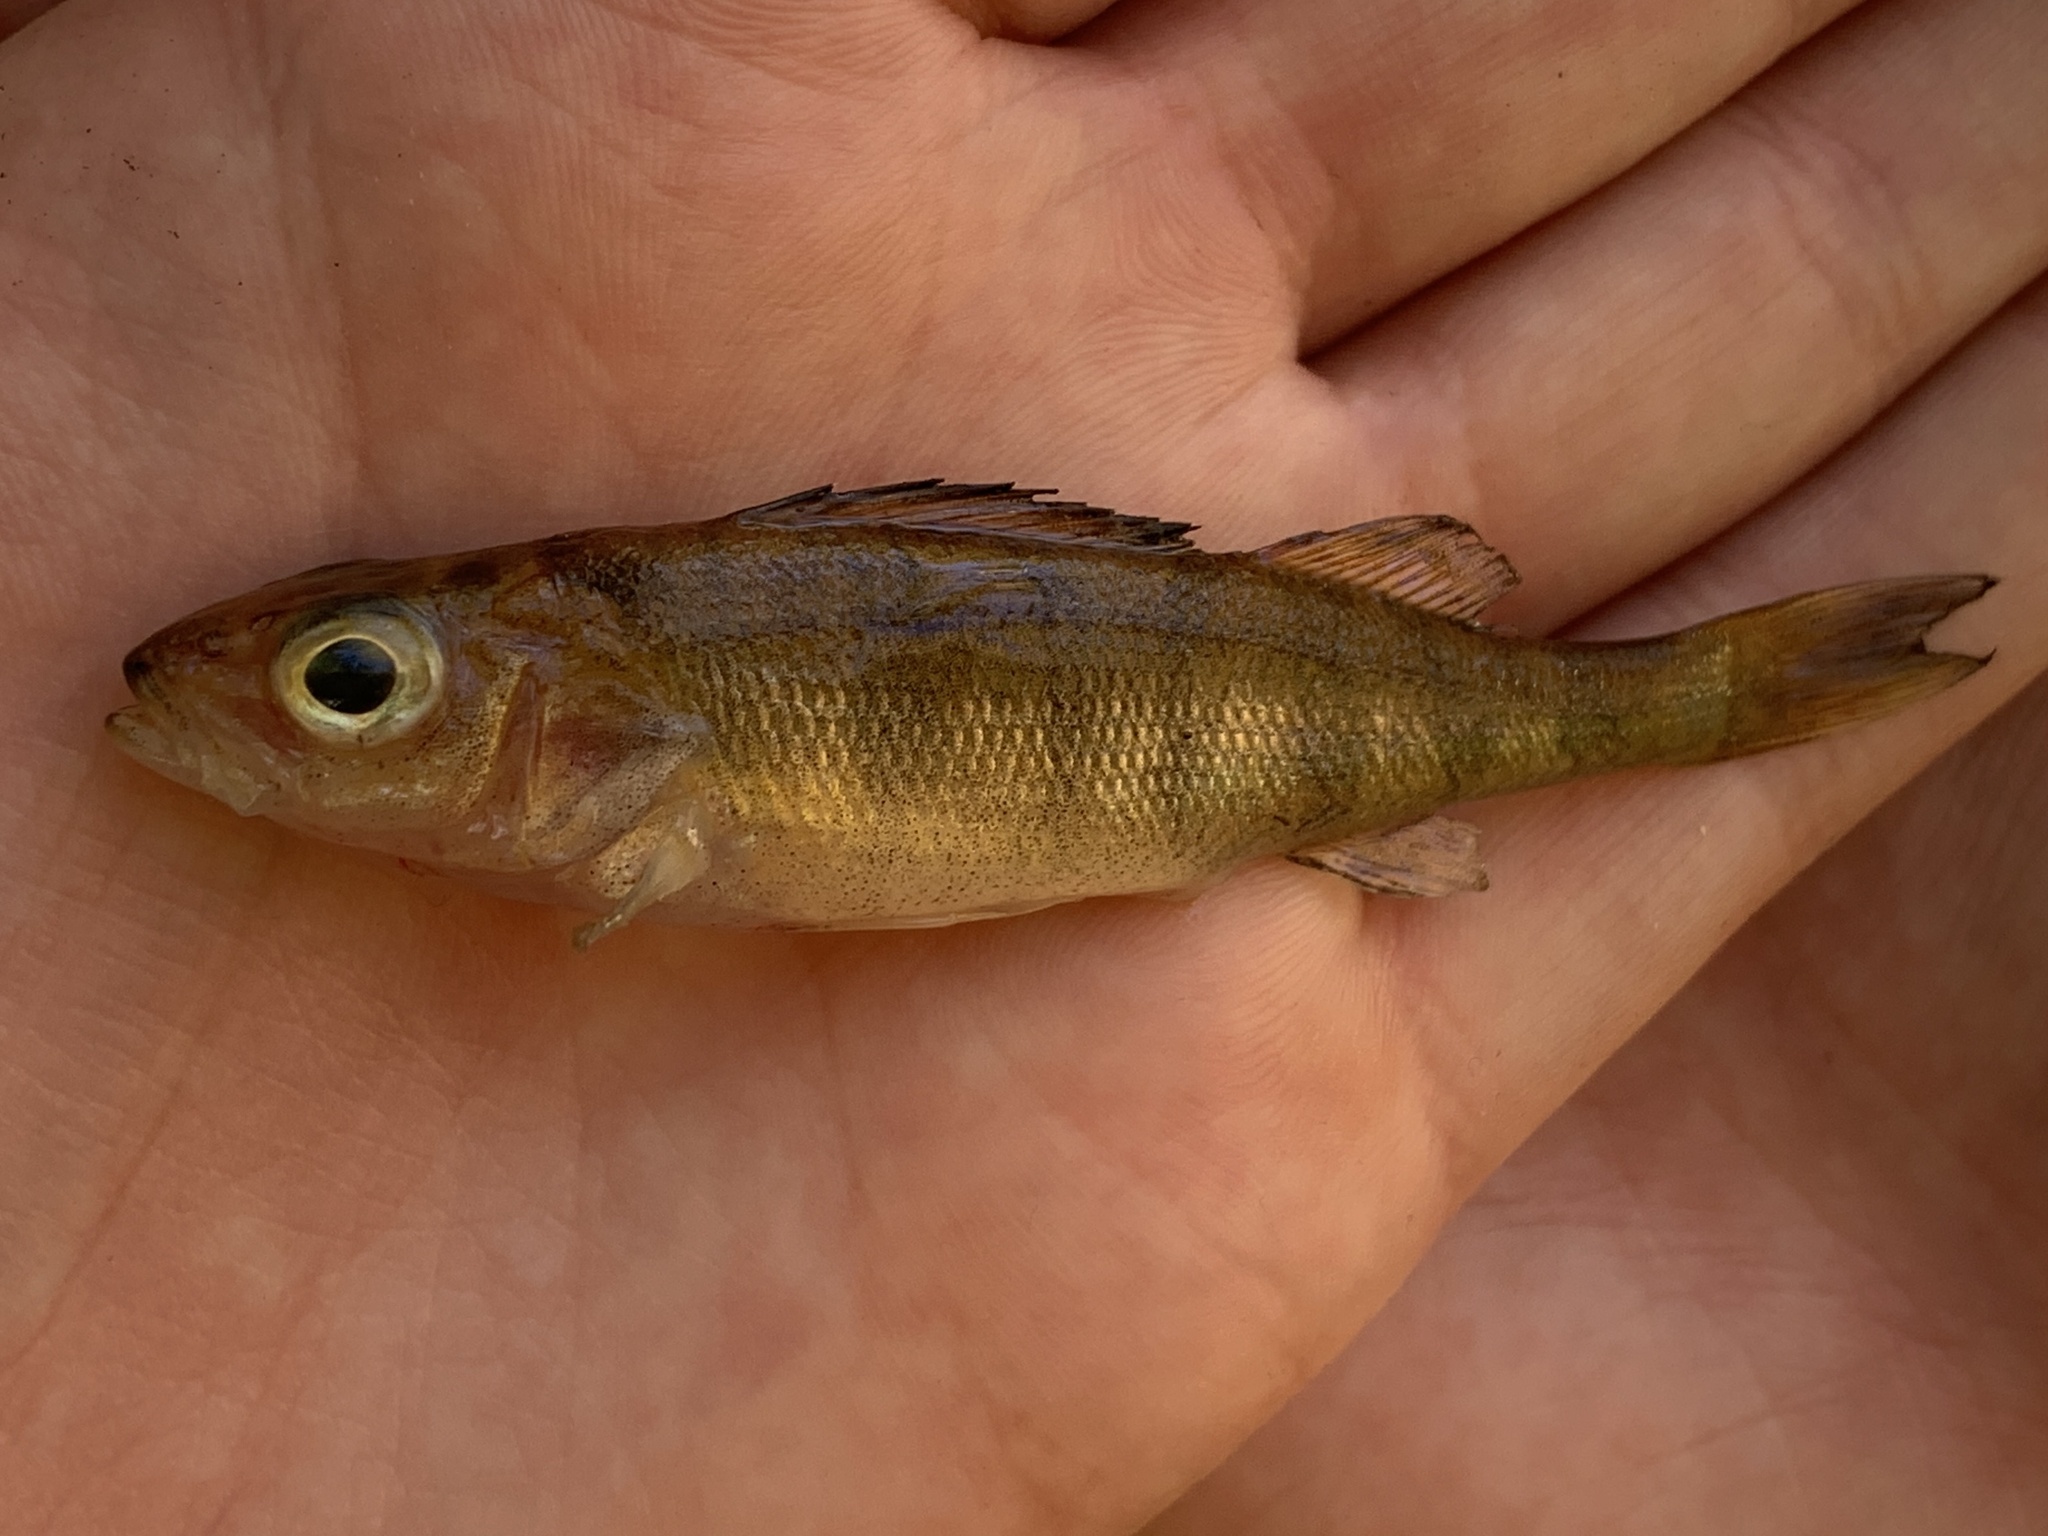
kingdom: Animalia
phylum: Chordata
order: Perciformes
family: Percidae
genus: Perca
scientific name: Perca flavescens
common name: Yellow perch
